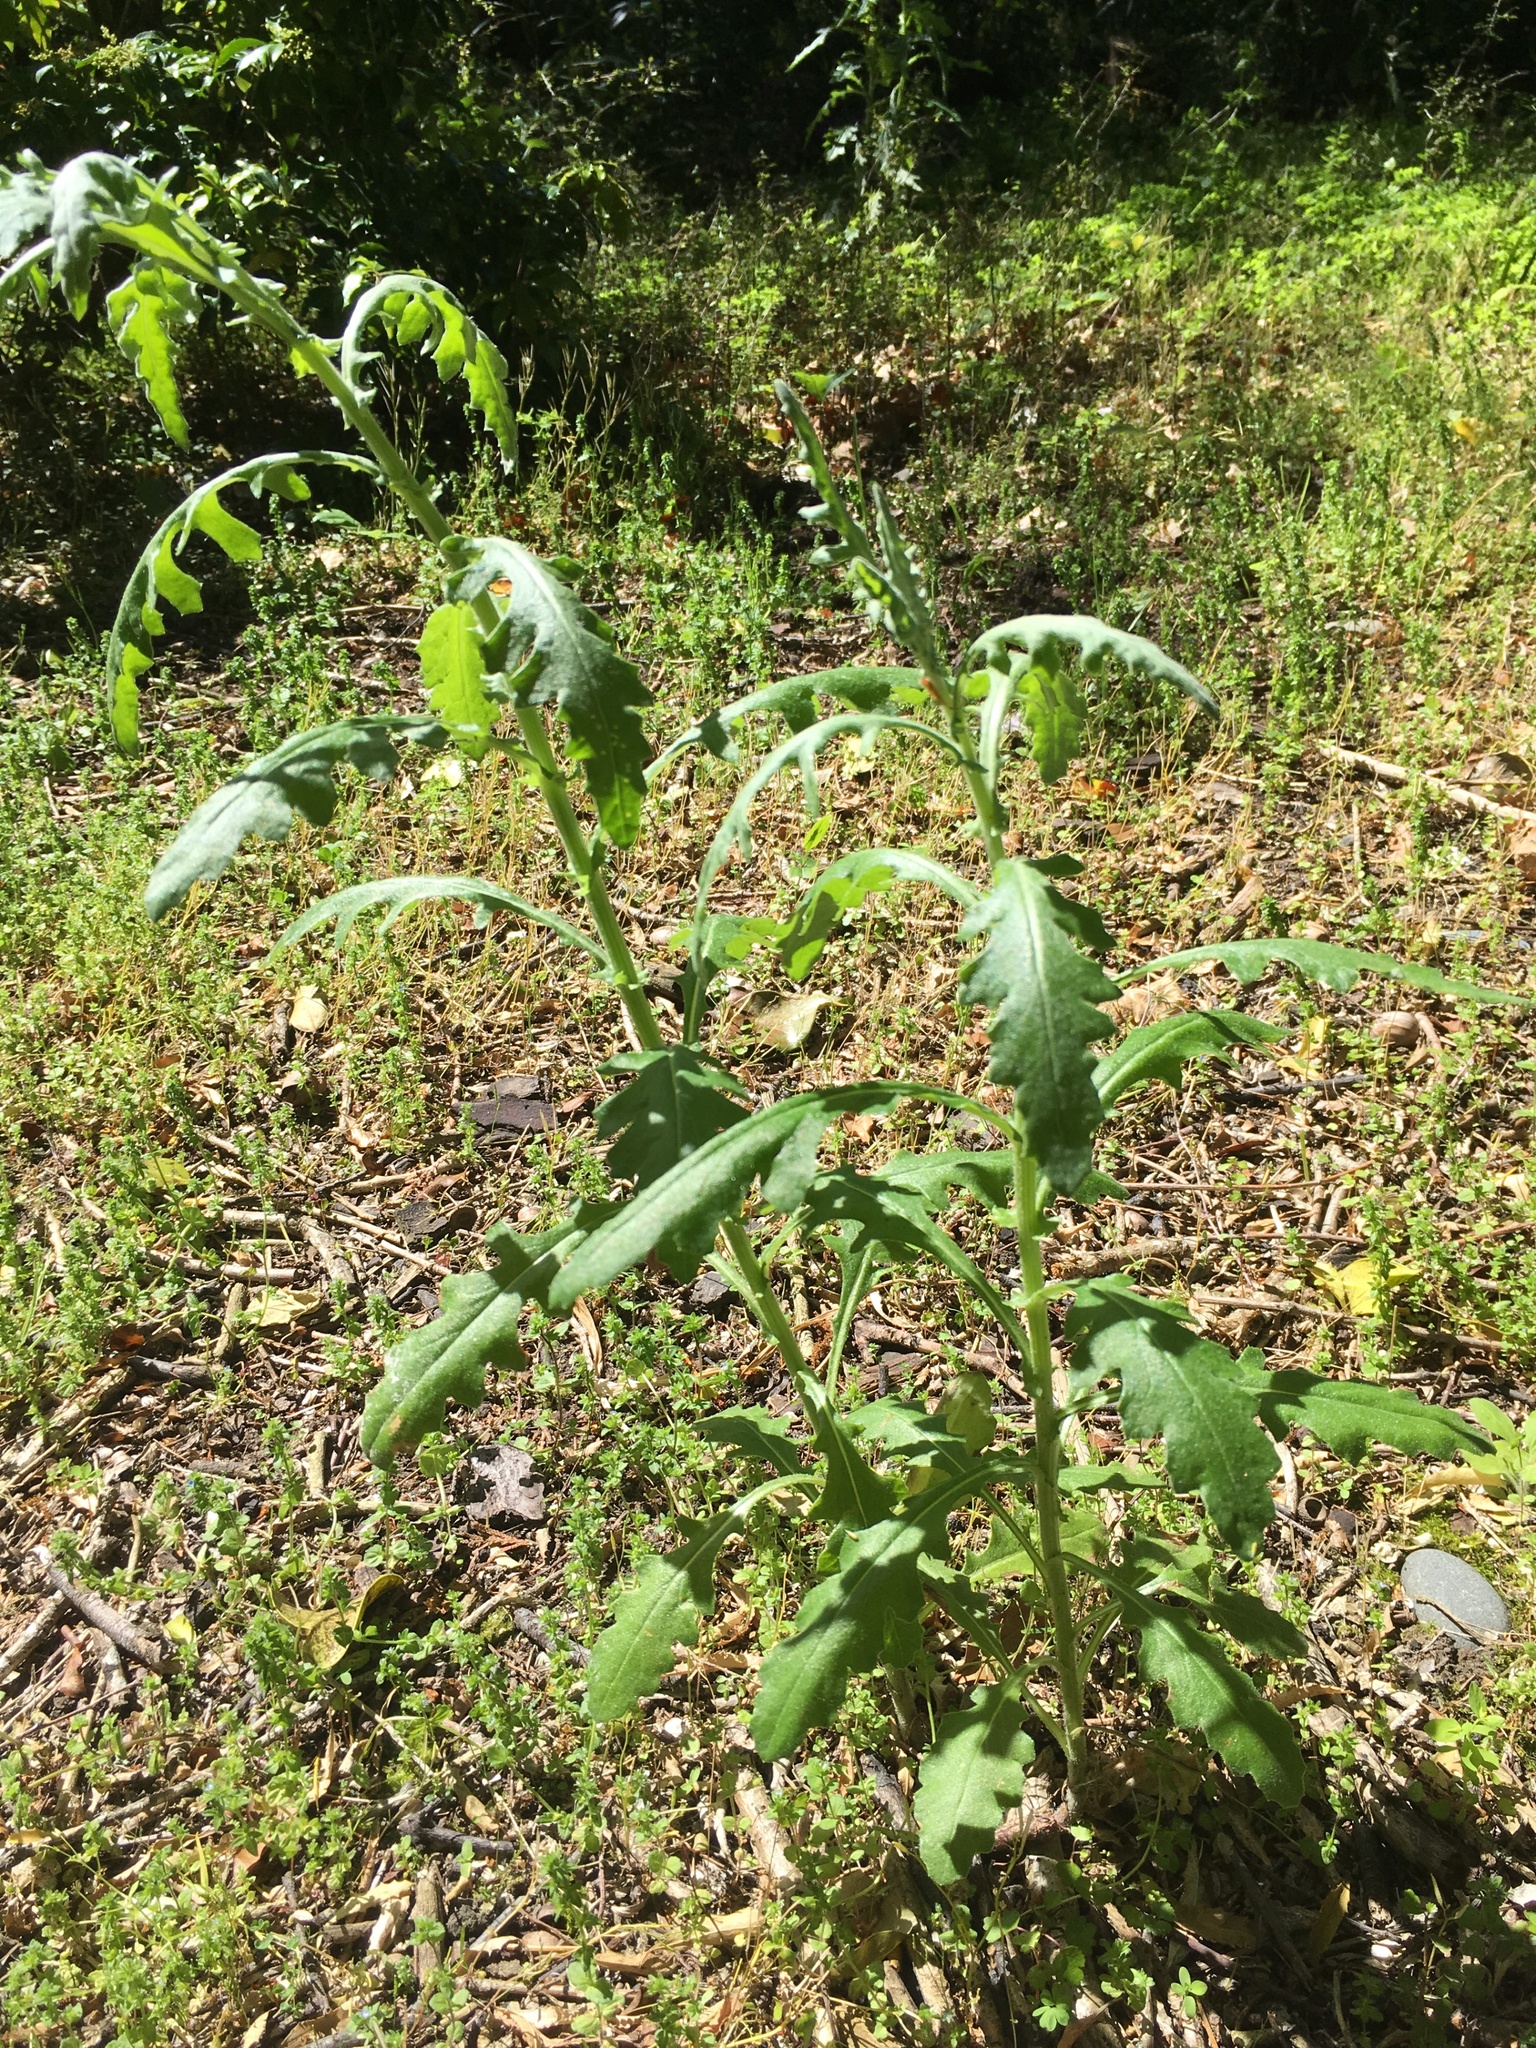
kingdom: Plantae
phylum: Tracheophyta
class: Magnoliopsida
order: Asterales
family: Asteraceae
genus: Senecio
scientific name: Senecio glomeratus
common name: Cutleaf burnweed
